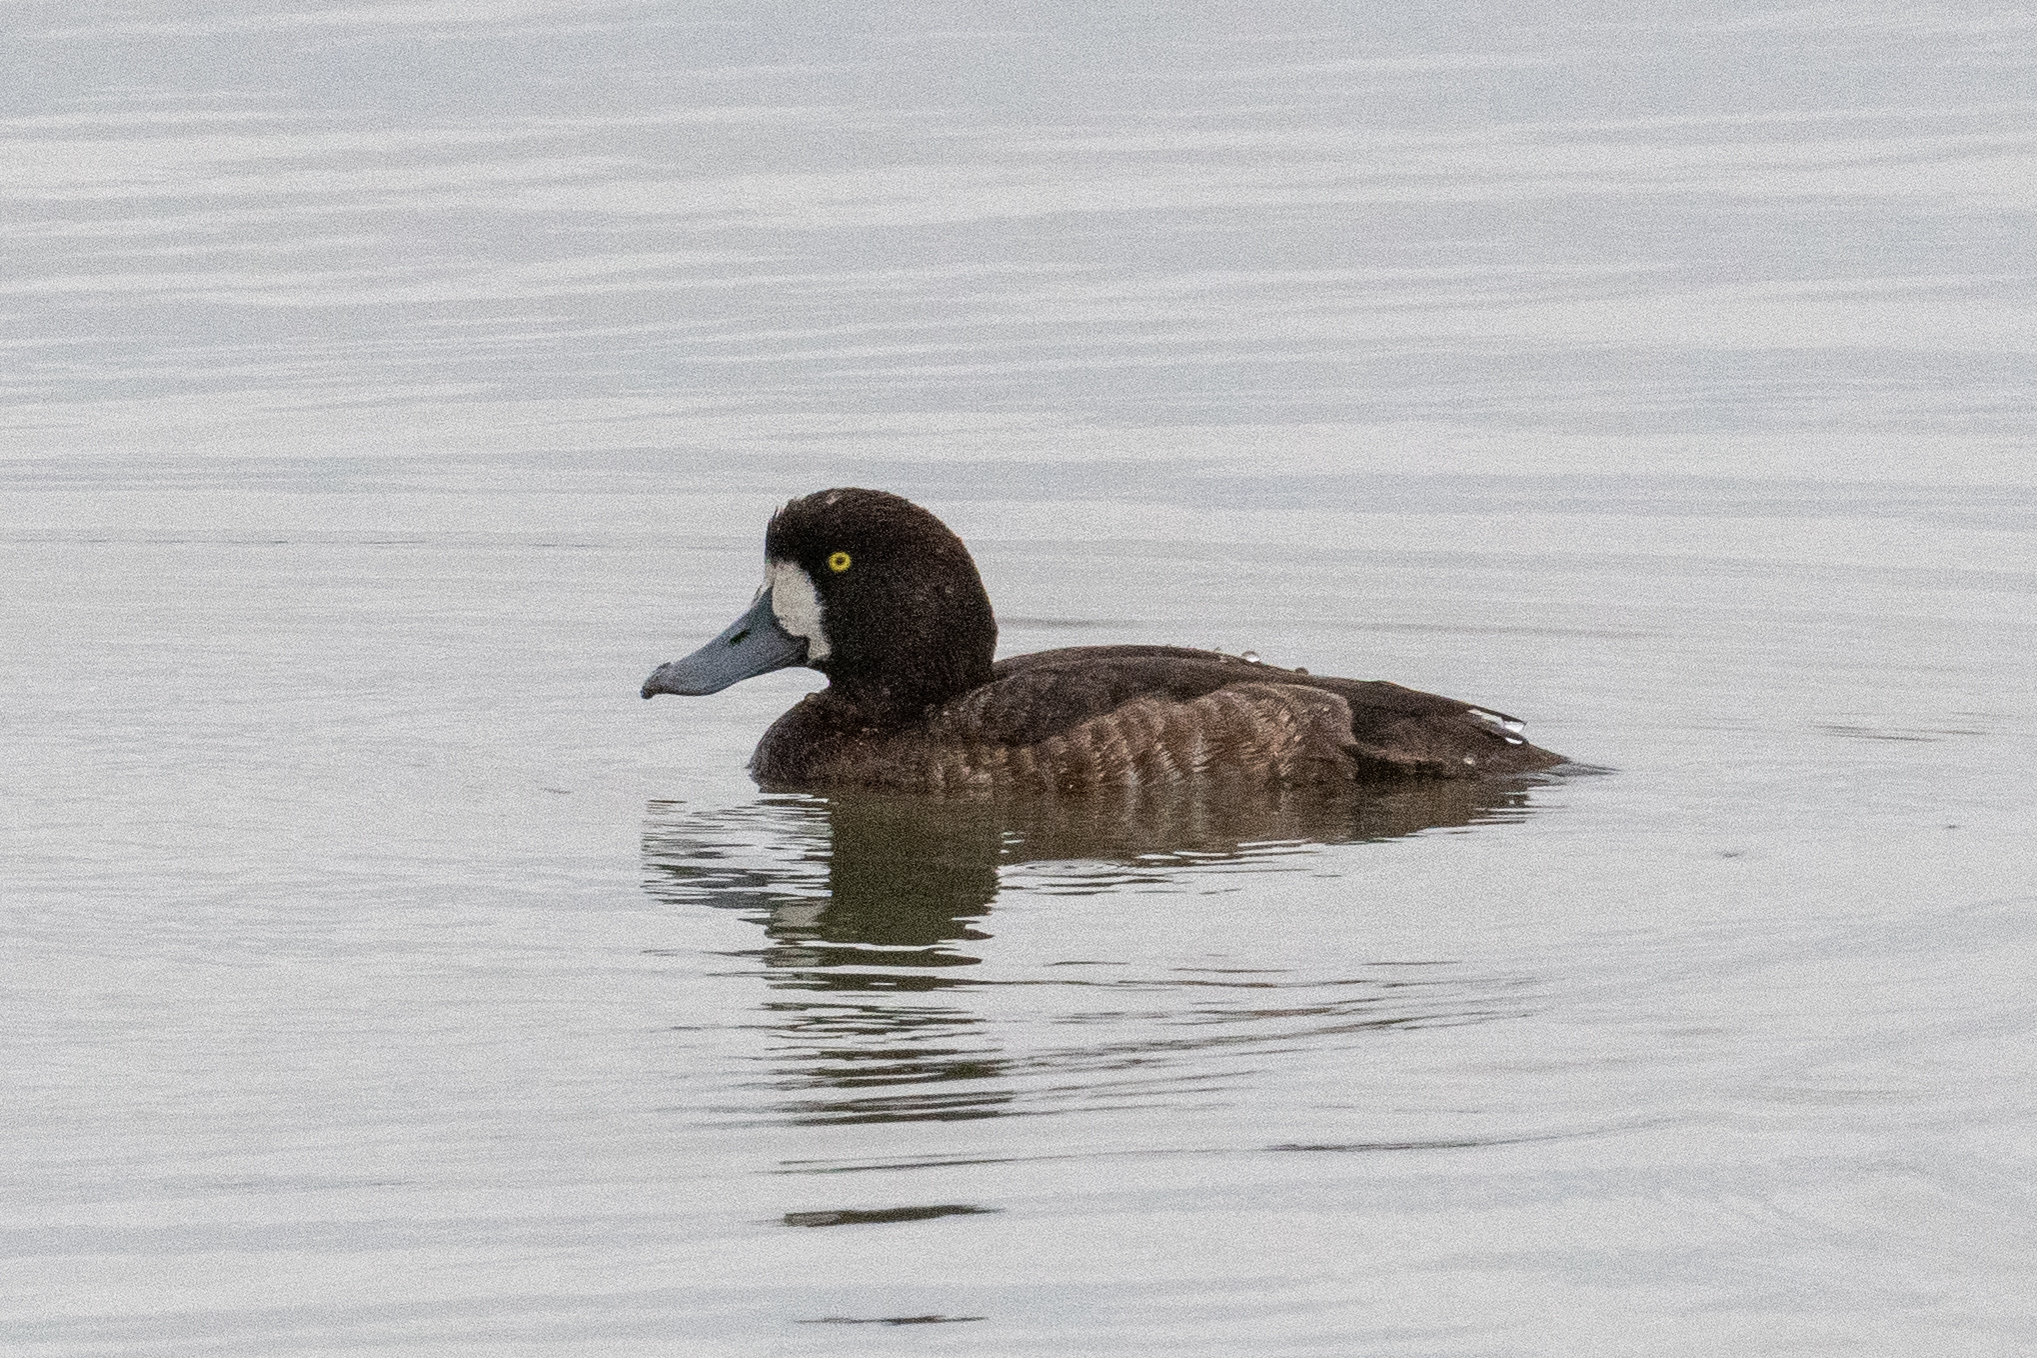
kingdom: Animalia
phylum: Chordata
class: Aves
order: Anseriformes
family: Anatidae
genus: Aythya
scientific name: Aythya marila
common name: Greater scaup
